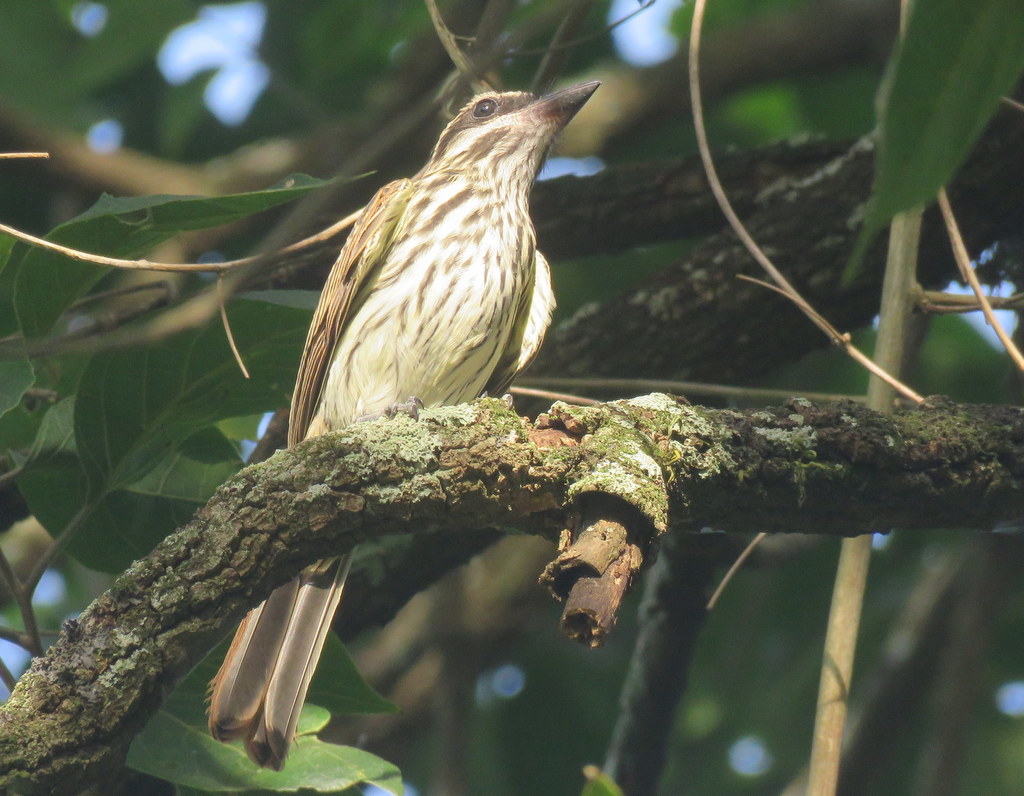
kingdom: Animalia
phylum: Chordata
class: Aves
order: Passeriformes
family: Tyrannidae
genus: Myiodynastes
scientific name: Myiodynastes maculatus
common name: Streaked flycatcher
